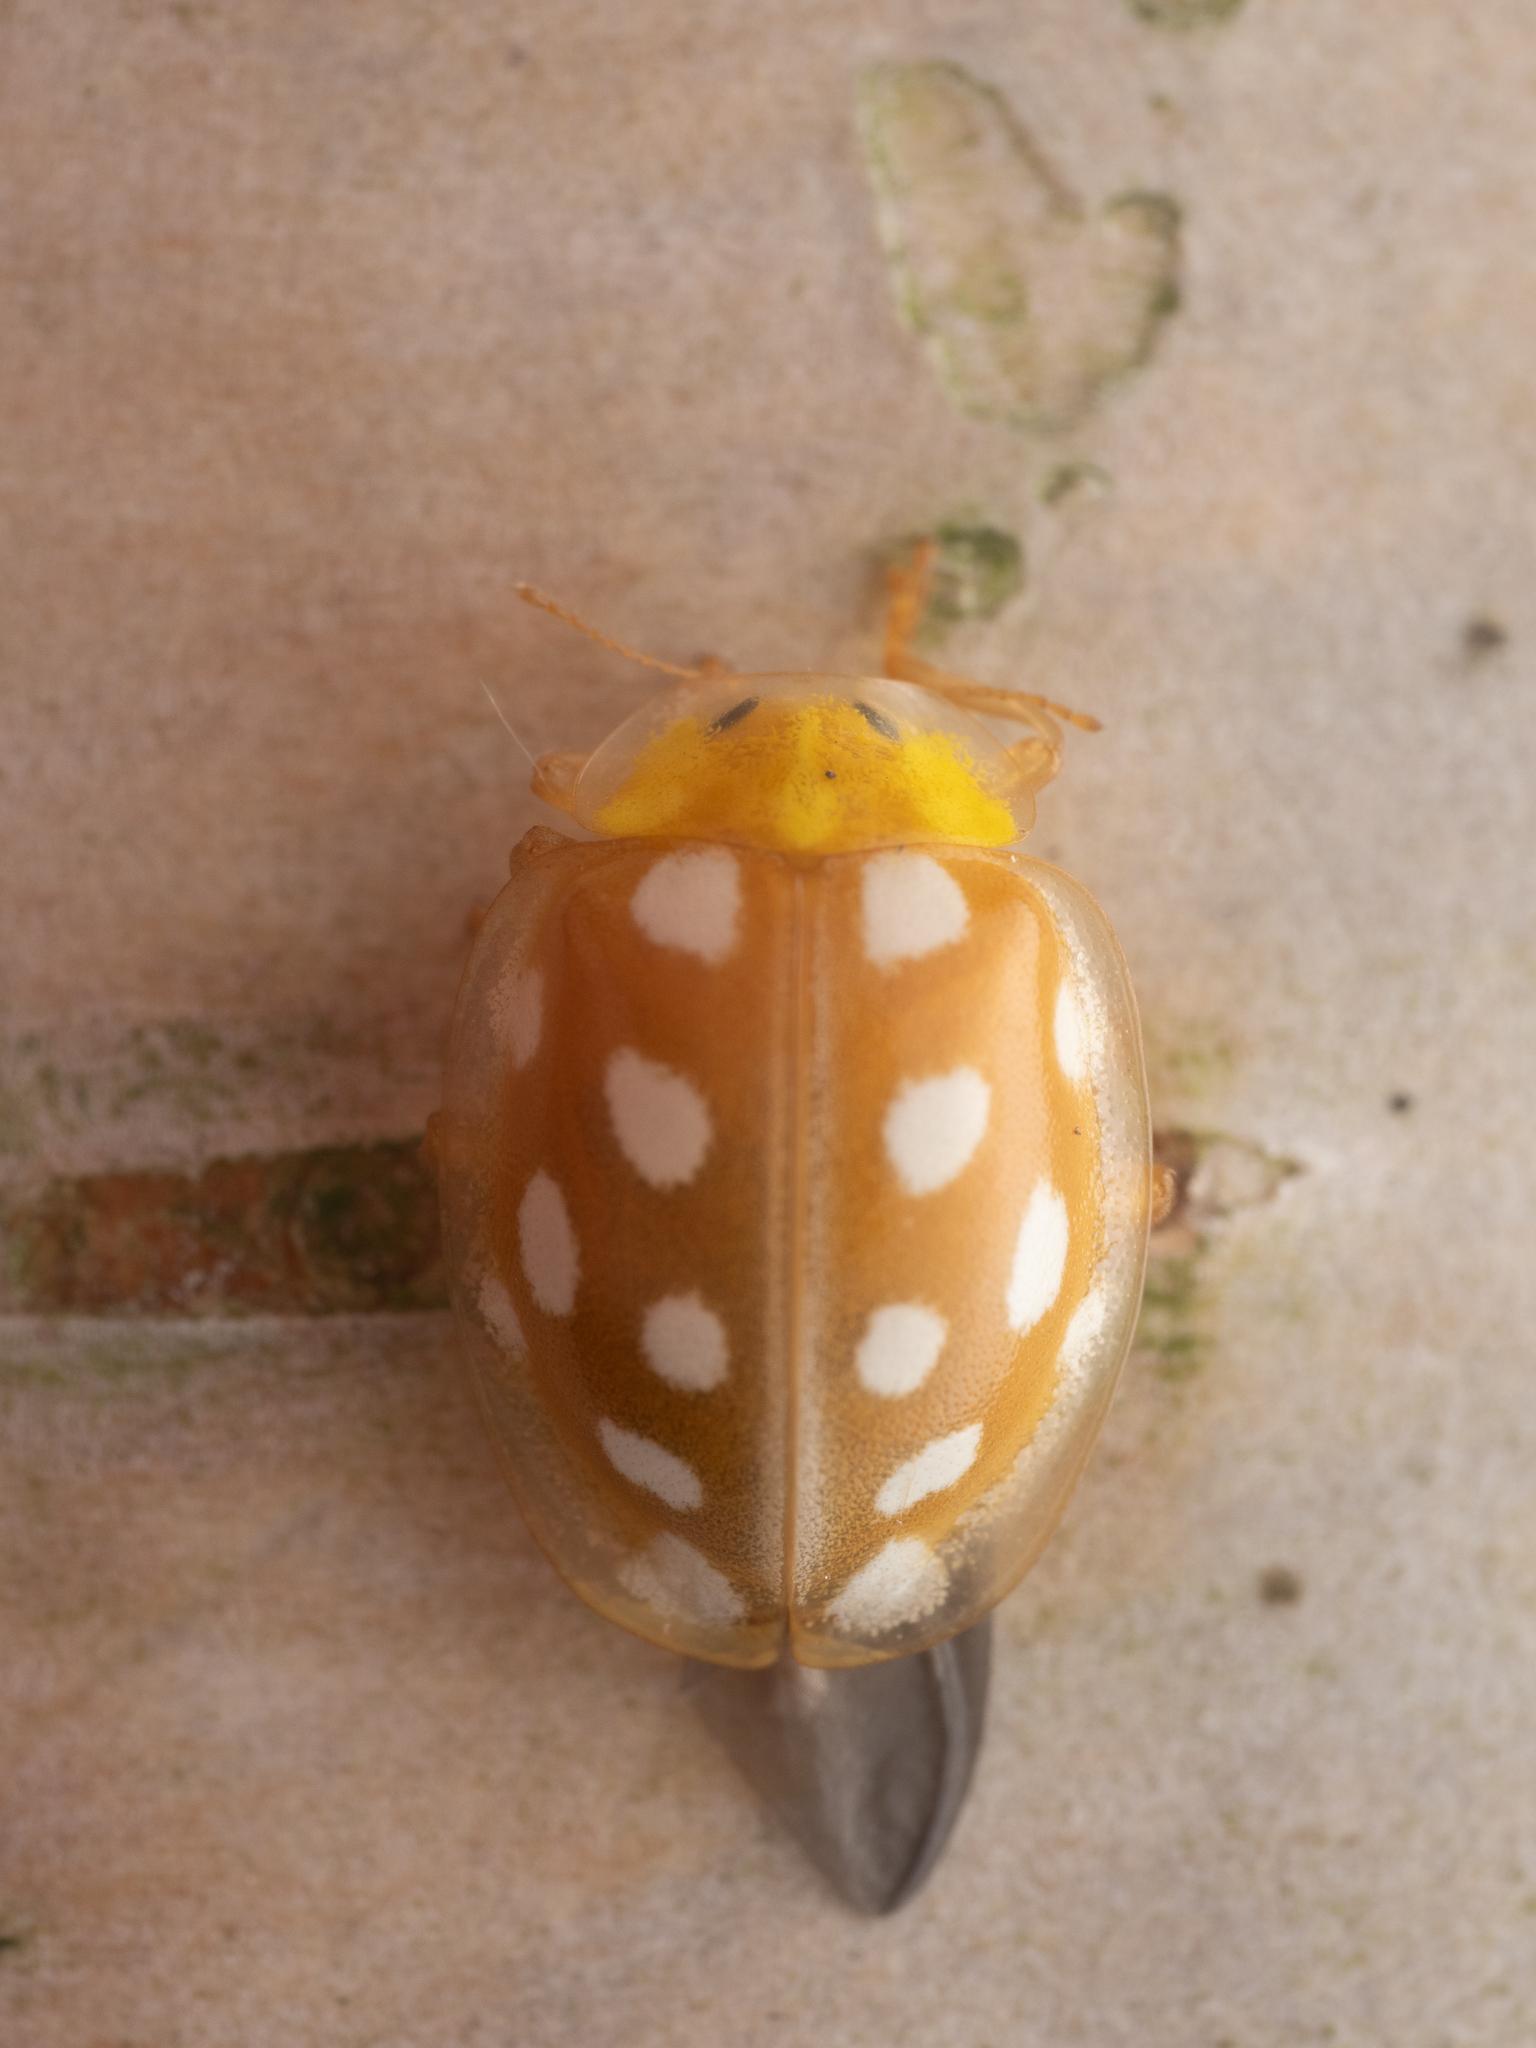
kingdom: Animalia
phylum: Arthropoda
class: Insecta
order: Coleoptera
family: Coccinellidae
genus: Halyzia
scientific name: Halyzia sedecimguttata
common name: Orange ladybird
